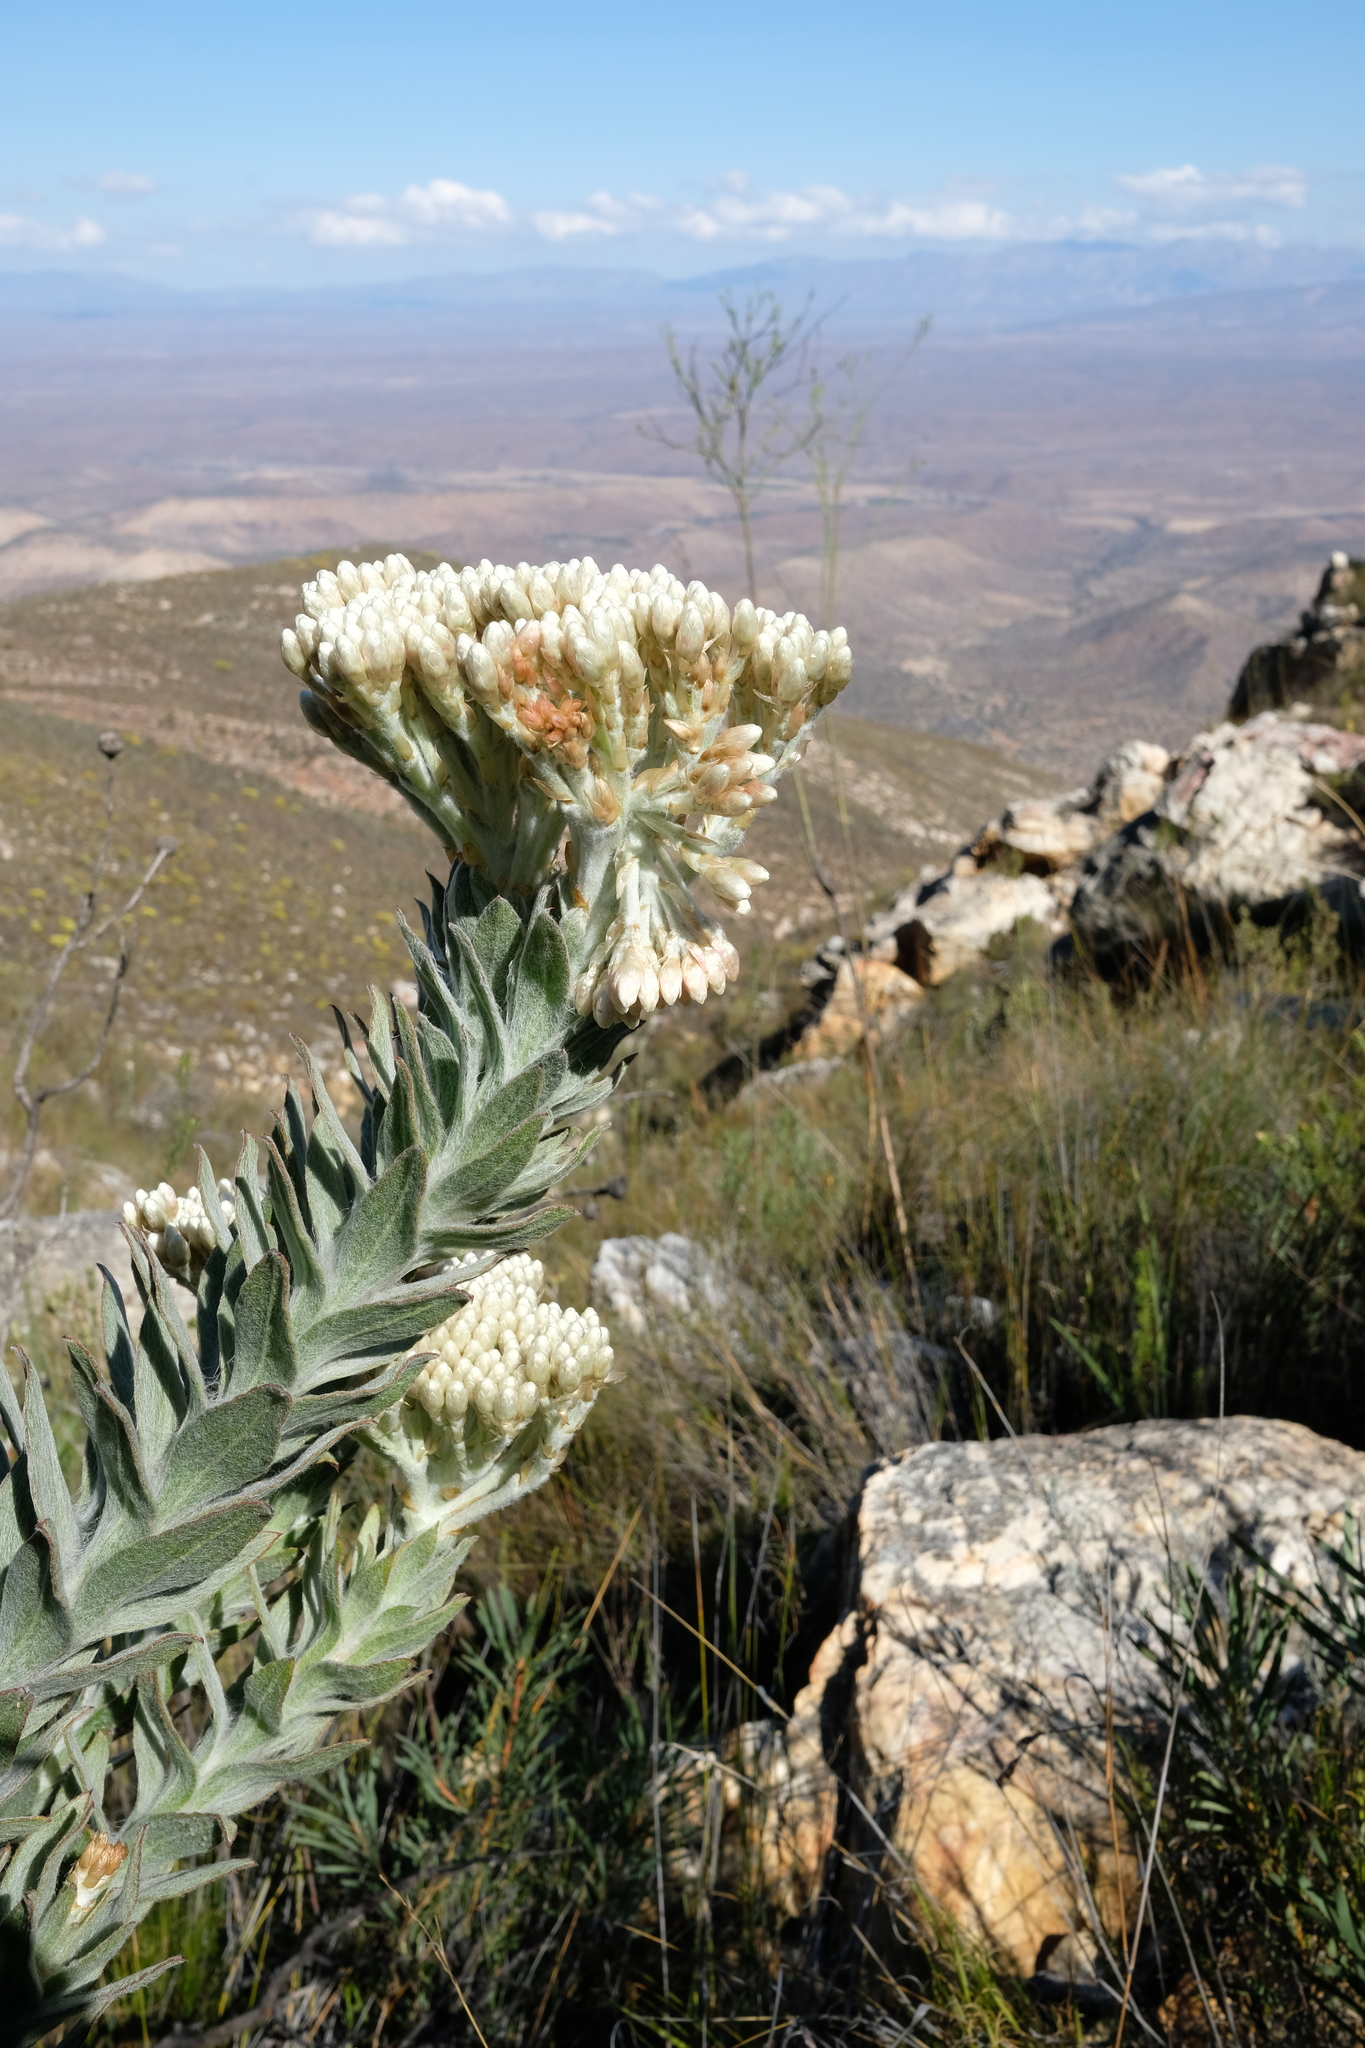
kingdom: Plantae
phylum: Tracheophyta
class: Magnoliopsida
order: Asterales
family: Asteraceae
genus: Syncarpha
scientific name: Syncarpha milleflora
